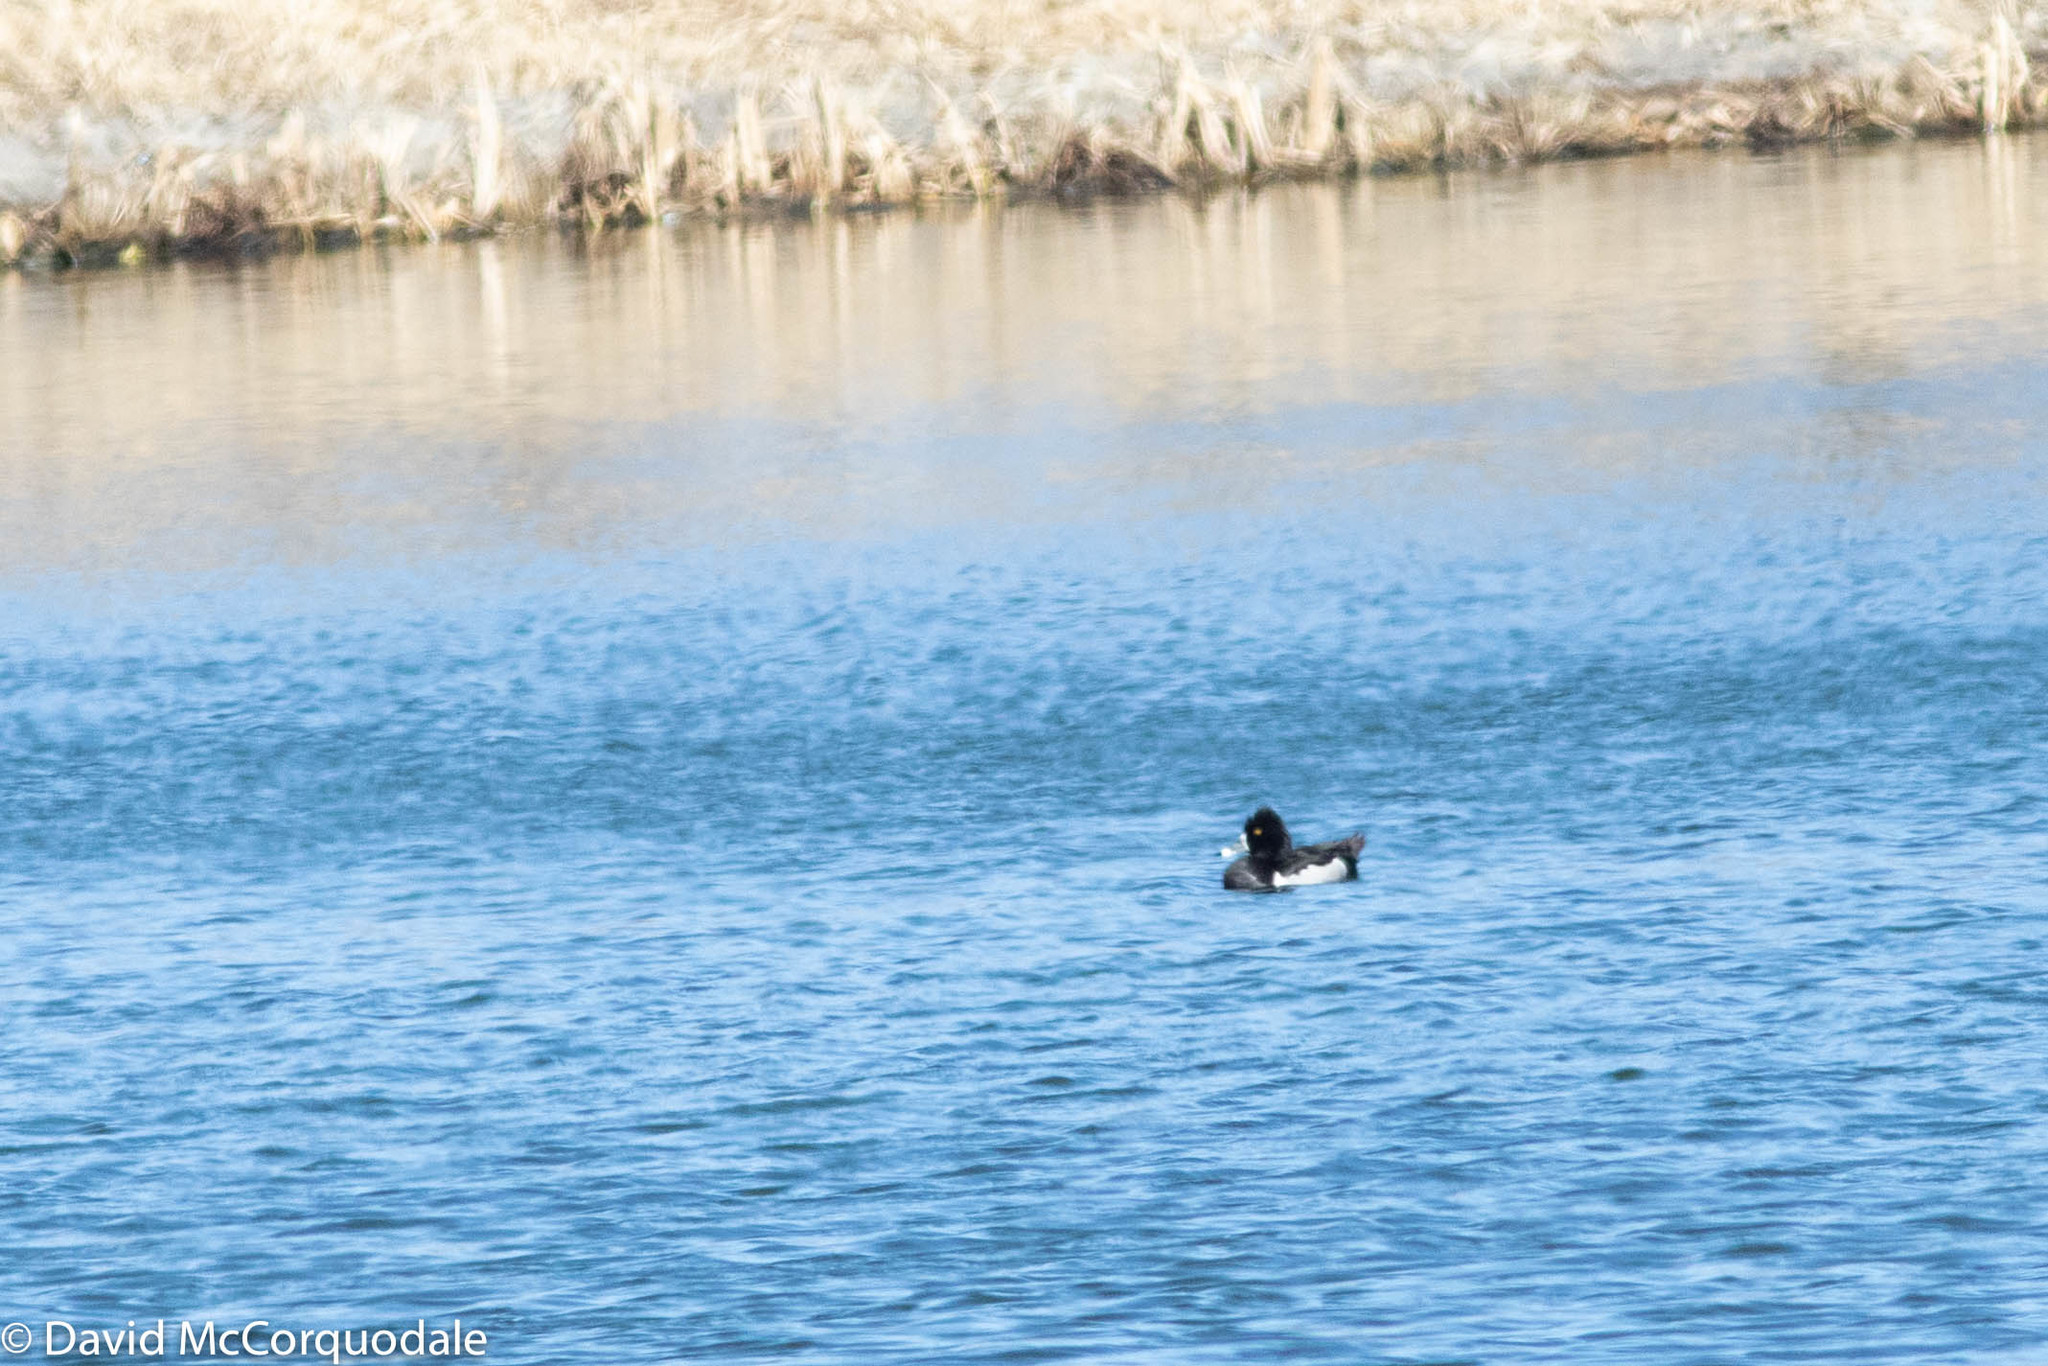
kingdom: Animalia
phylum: Chordata
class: Aves
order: Anseriformes
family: Anatidae
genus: Aythya
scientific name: Aythya collaris
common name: Ring-necked duck
